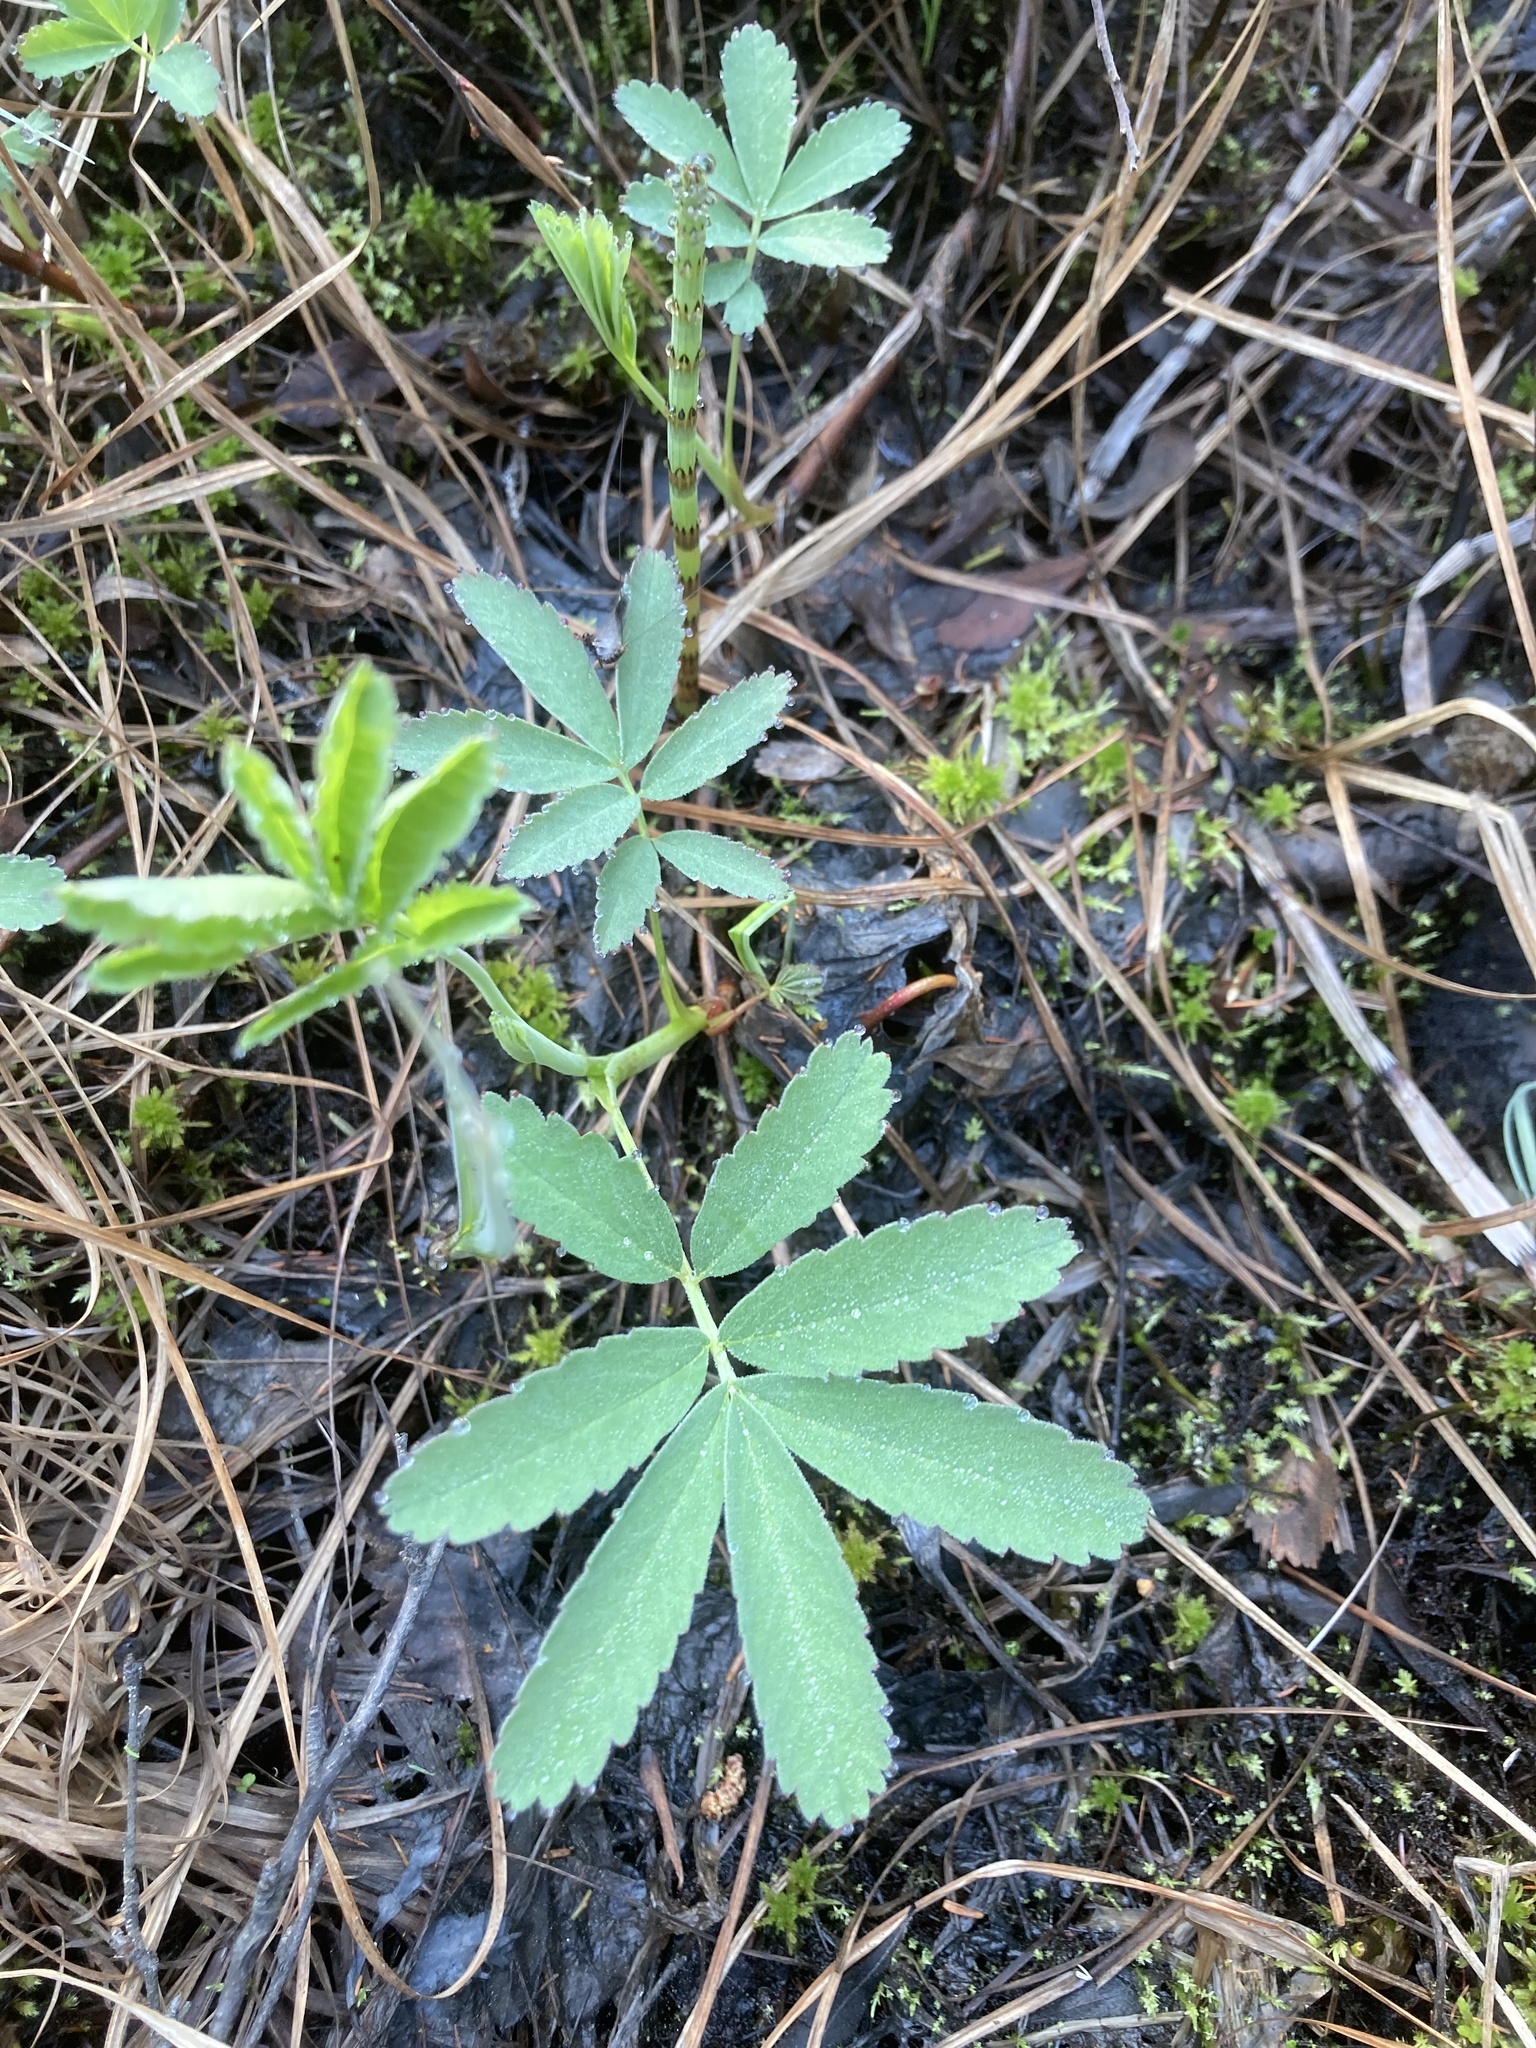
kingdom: Plantae
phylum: Tracheophyta
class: Magnoliopsida
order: Rosales
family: Rosaceae
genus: Comarum
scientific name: Comarum palustre
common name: Marsh cinquefoil
